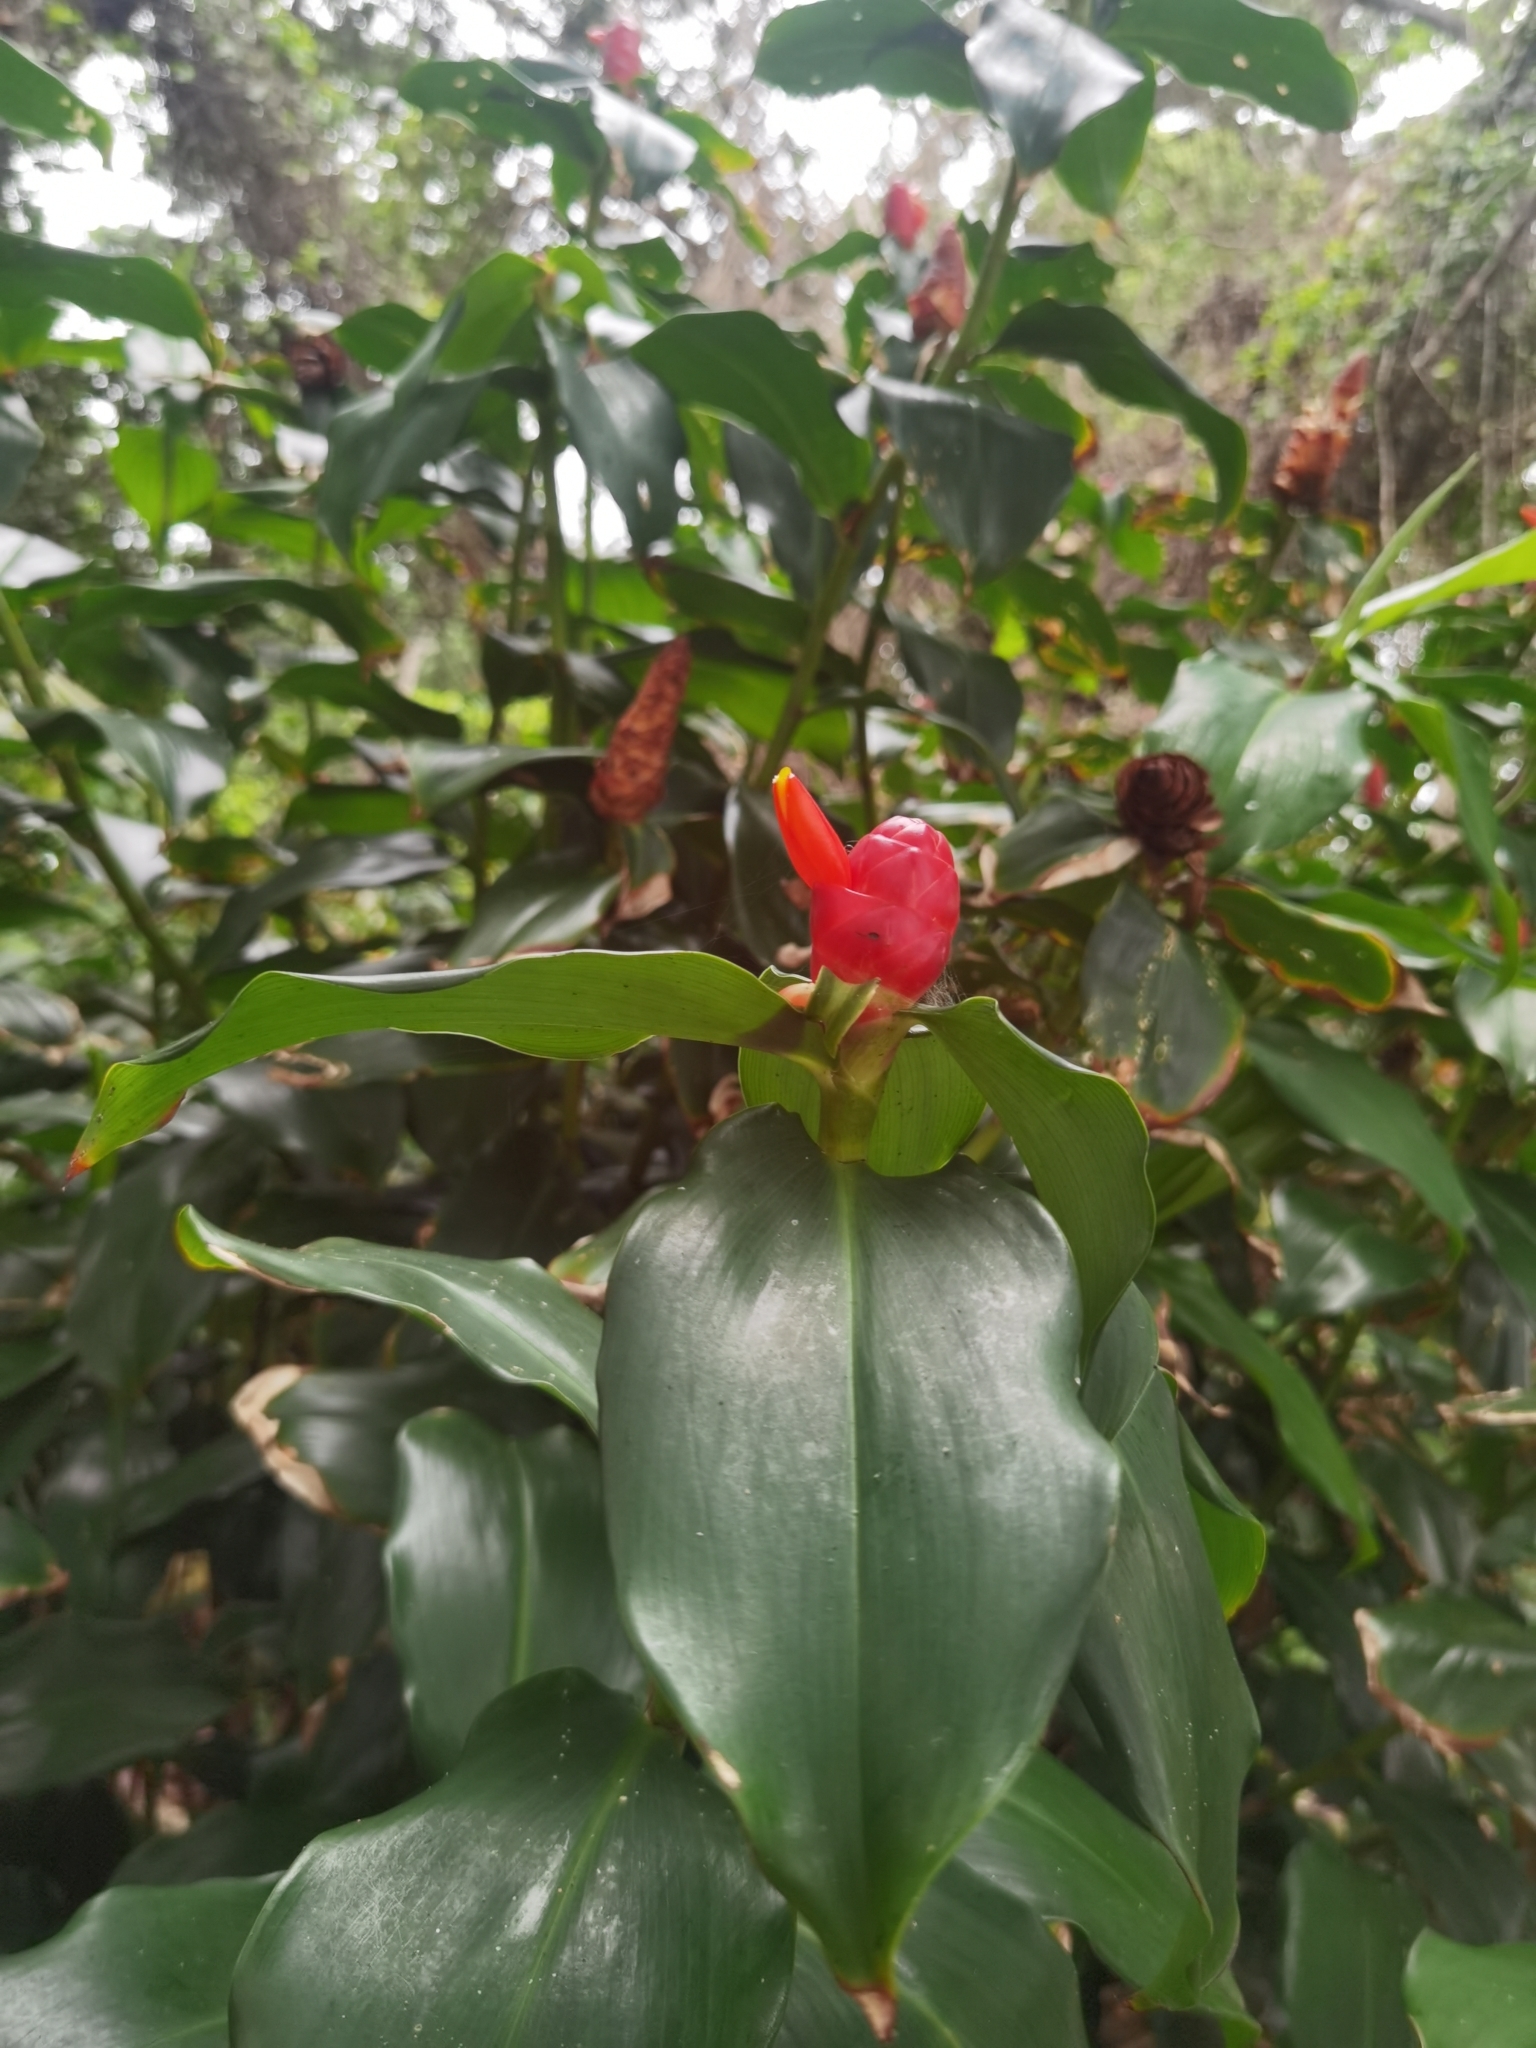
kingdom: Plantae
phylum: Tracheophyta
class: Liliopsida
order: Zingiberales
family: Costaceae
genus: Costus
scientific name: Costus woodsonii
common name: Scarlet spiral-ginger
